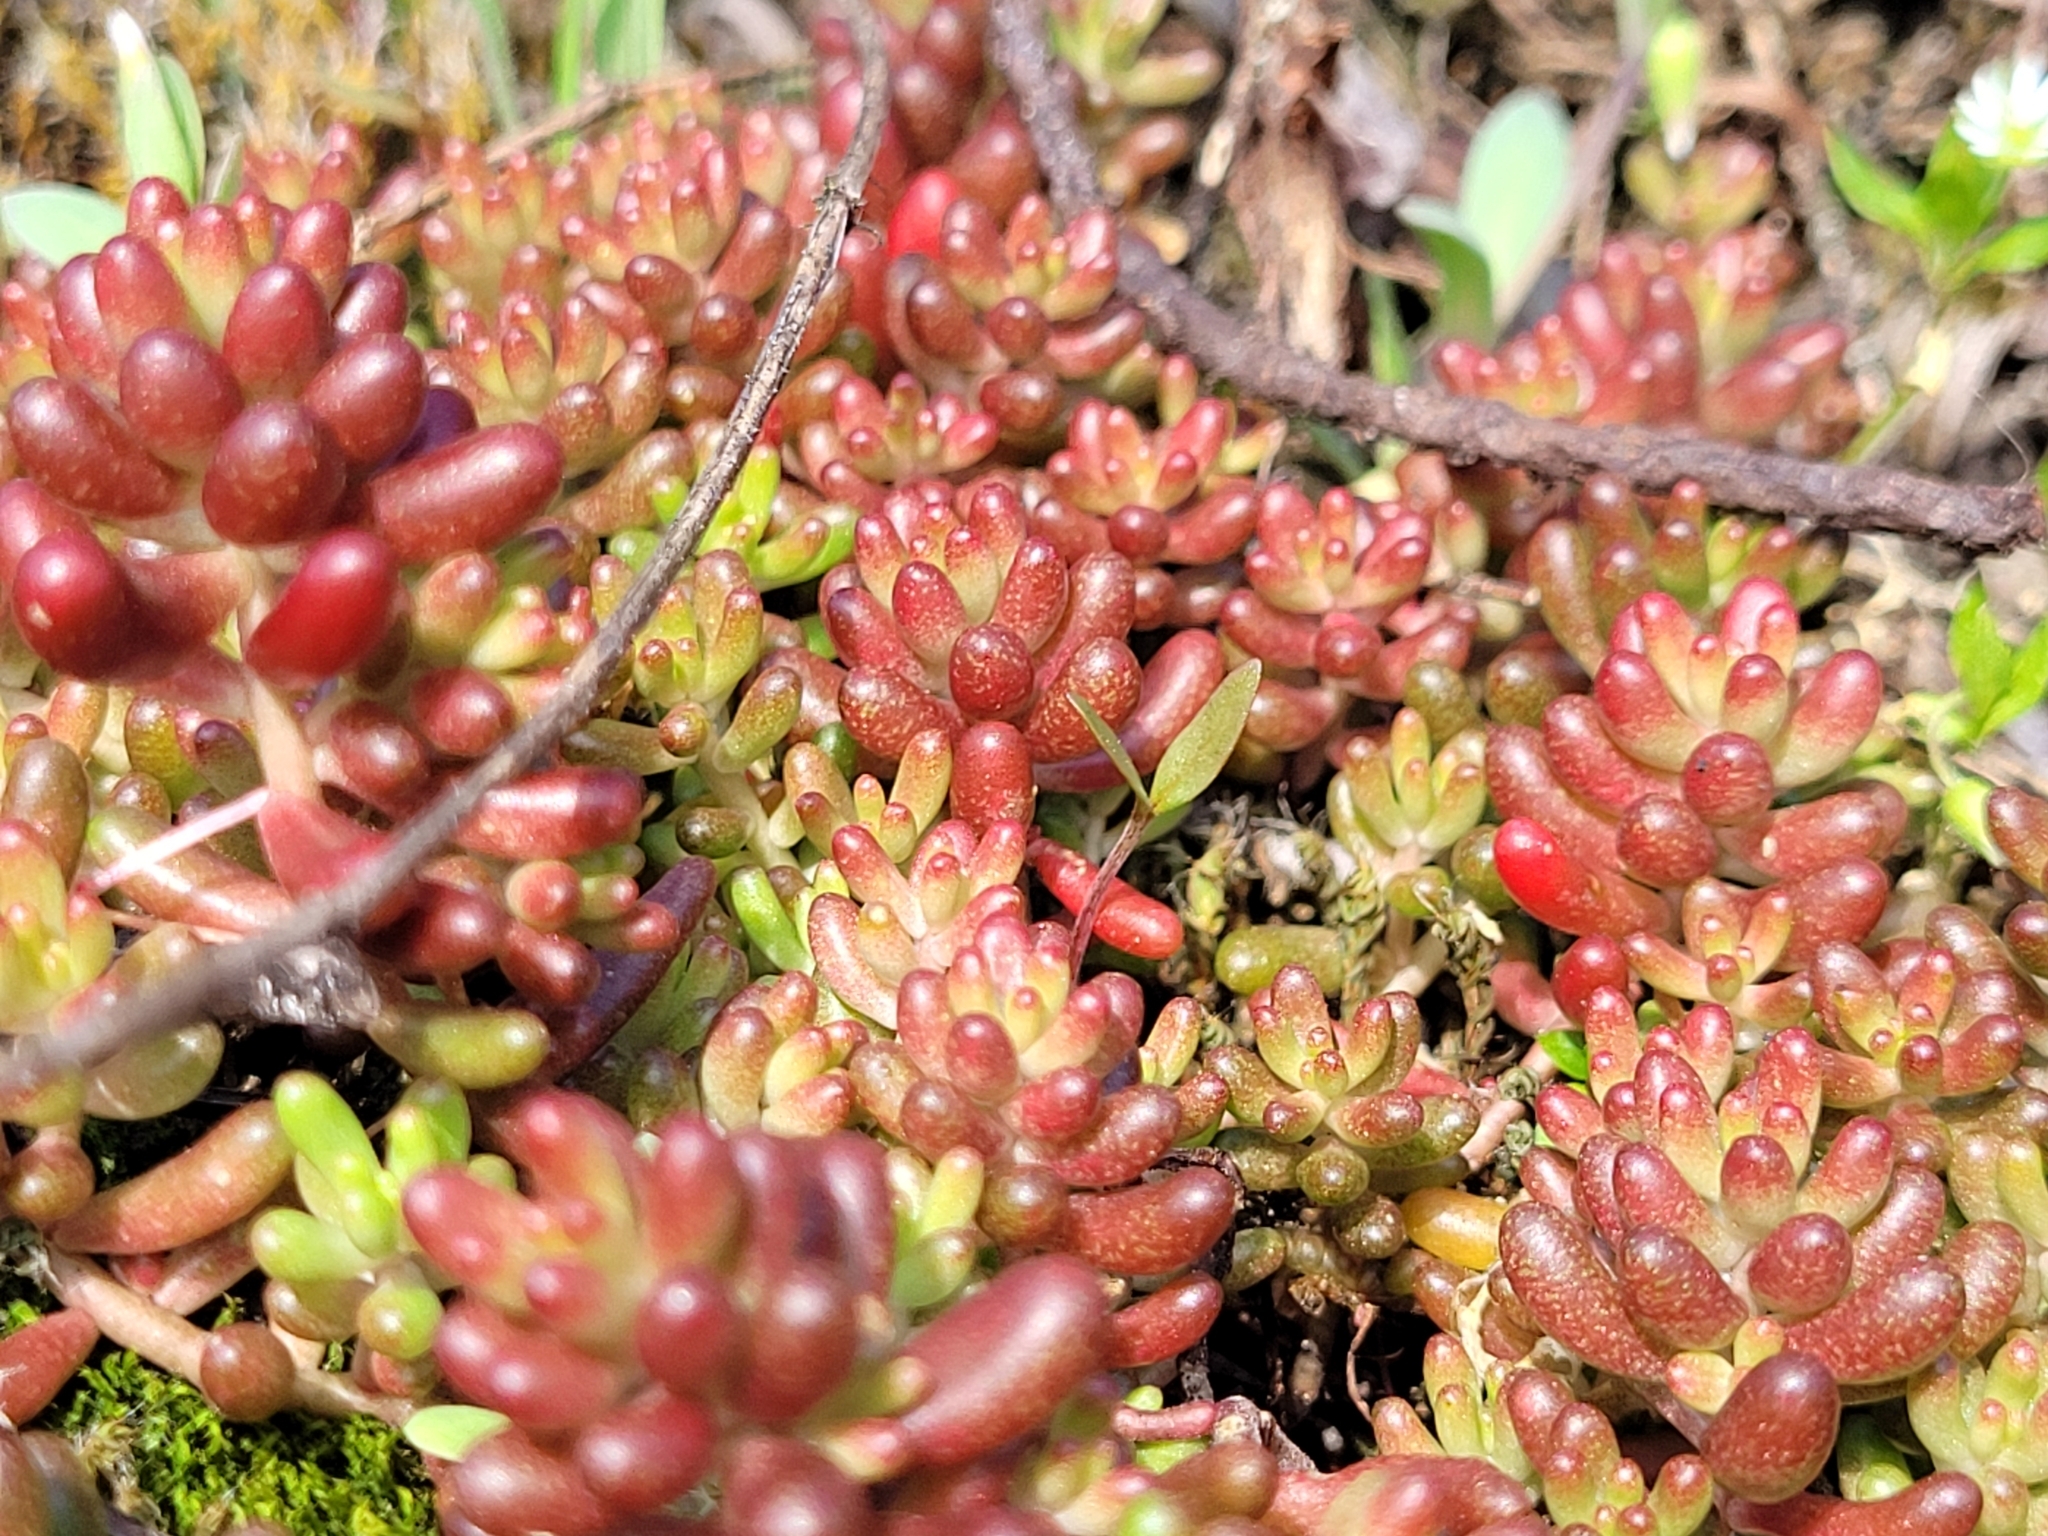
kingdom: Plantae
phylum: Tracheophyta
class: Magnoliopsida
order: Saxifragales
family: Crassulaceae
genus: Sedum
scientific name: Sedum album
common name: White stonecrop
